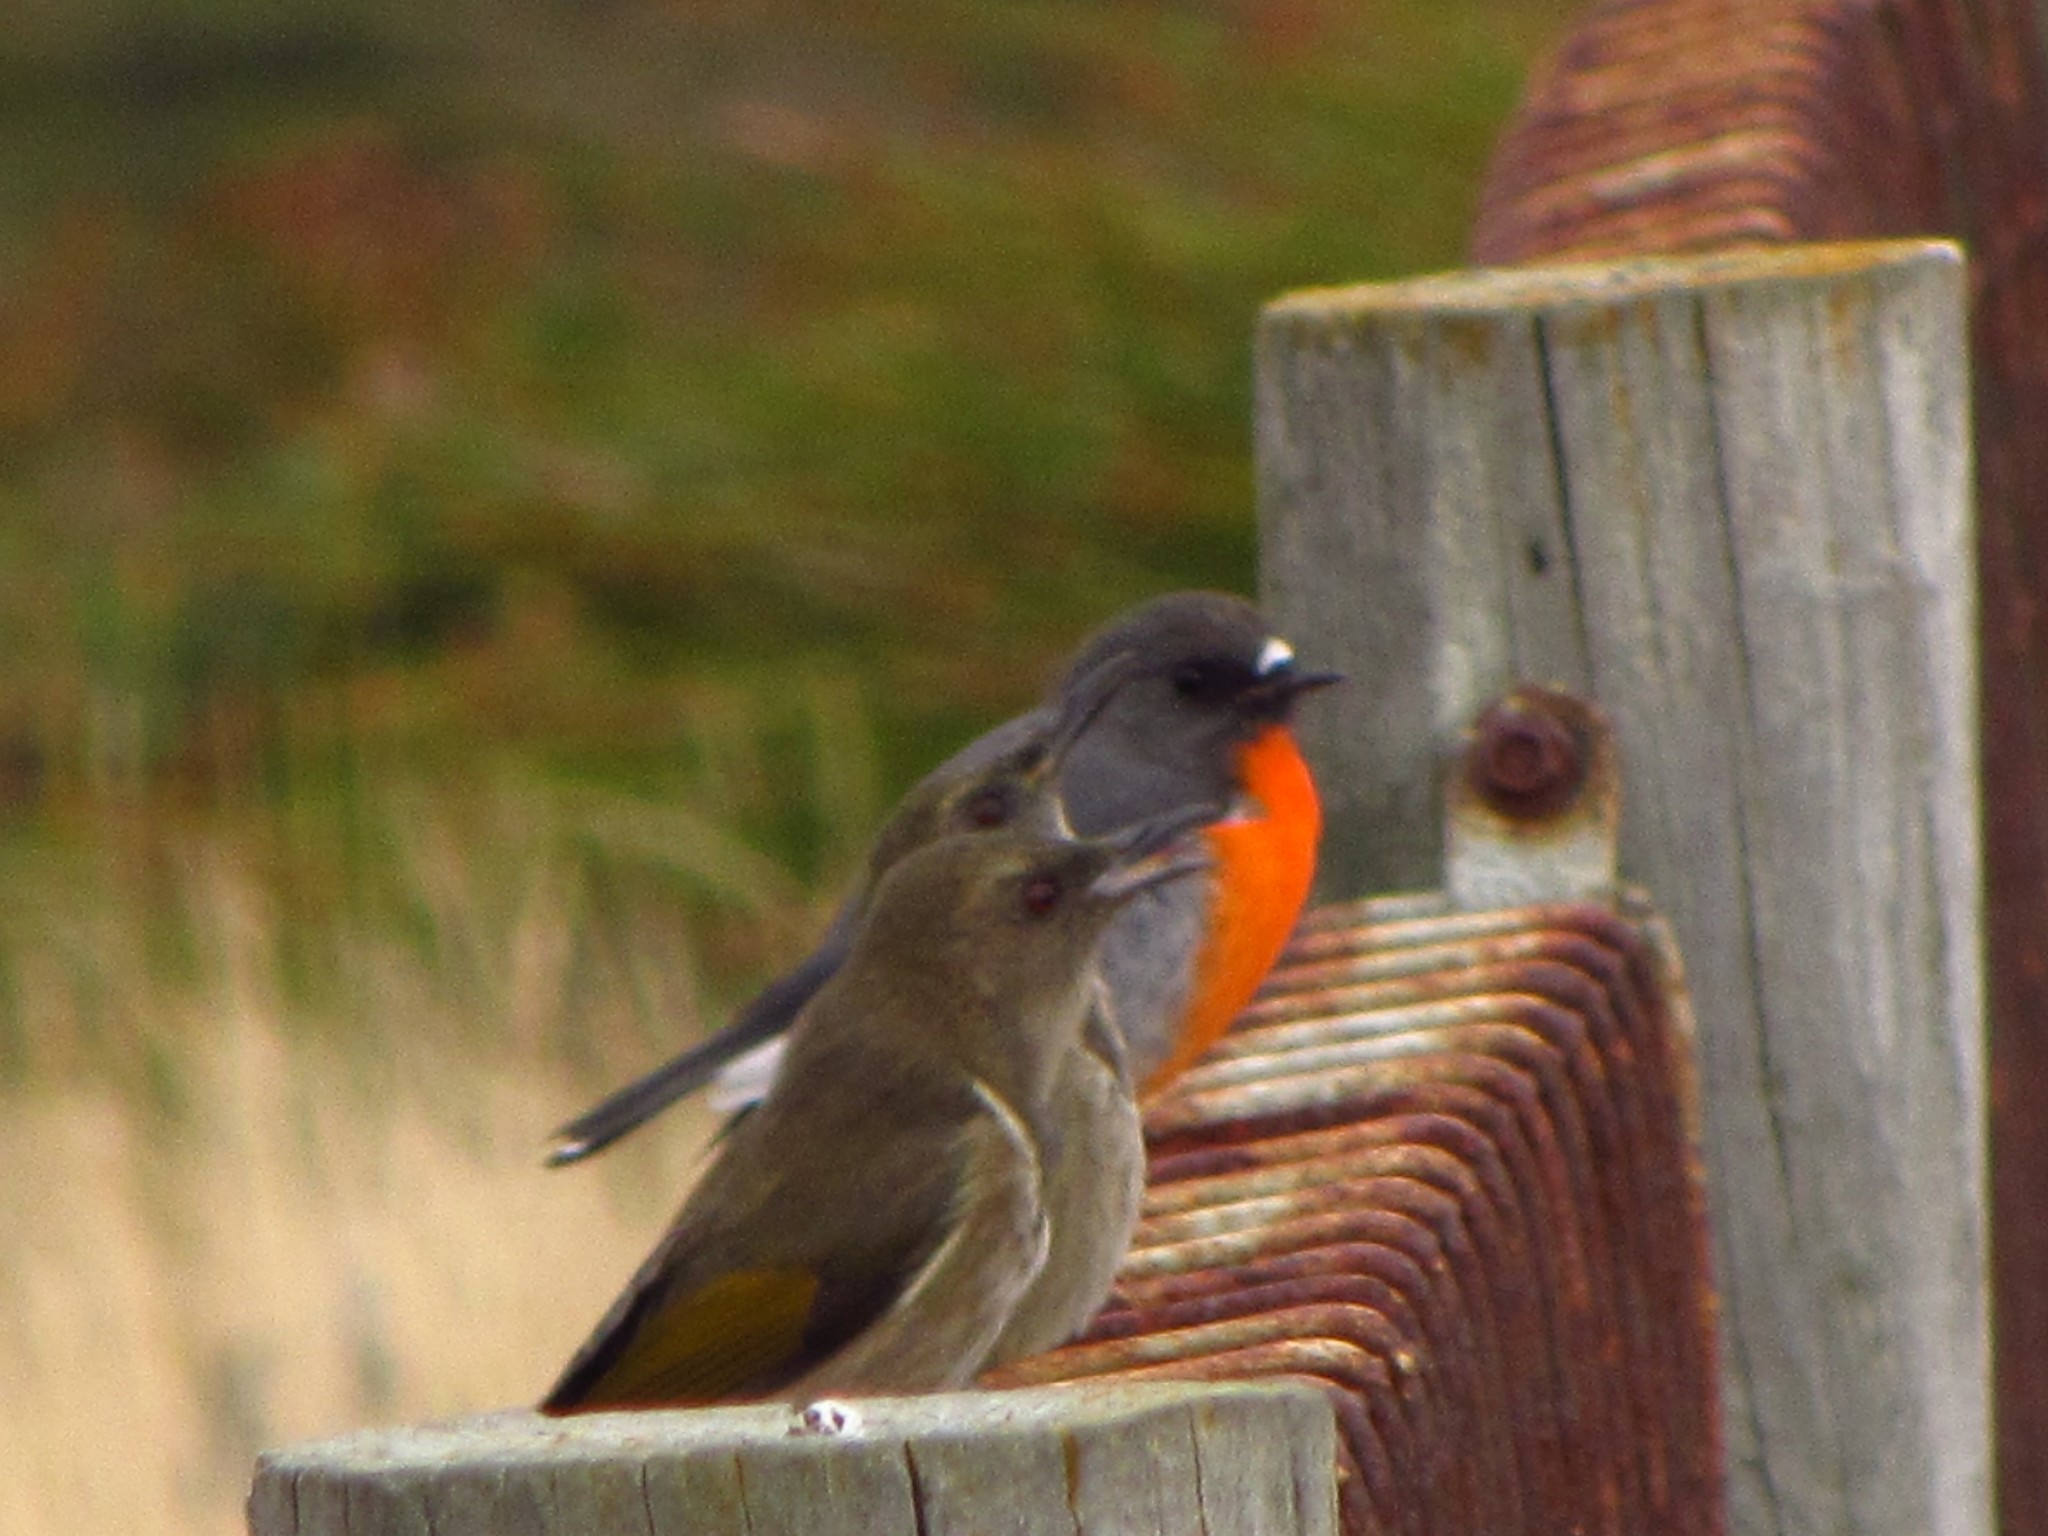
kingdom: Animalia
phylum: Chordata
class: Aves
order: Passeriformes
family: Petroicidae
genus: Petroica
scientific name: Petroica phoenicea
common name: Flame robin
